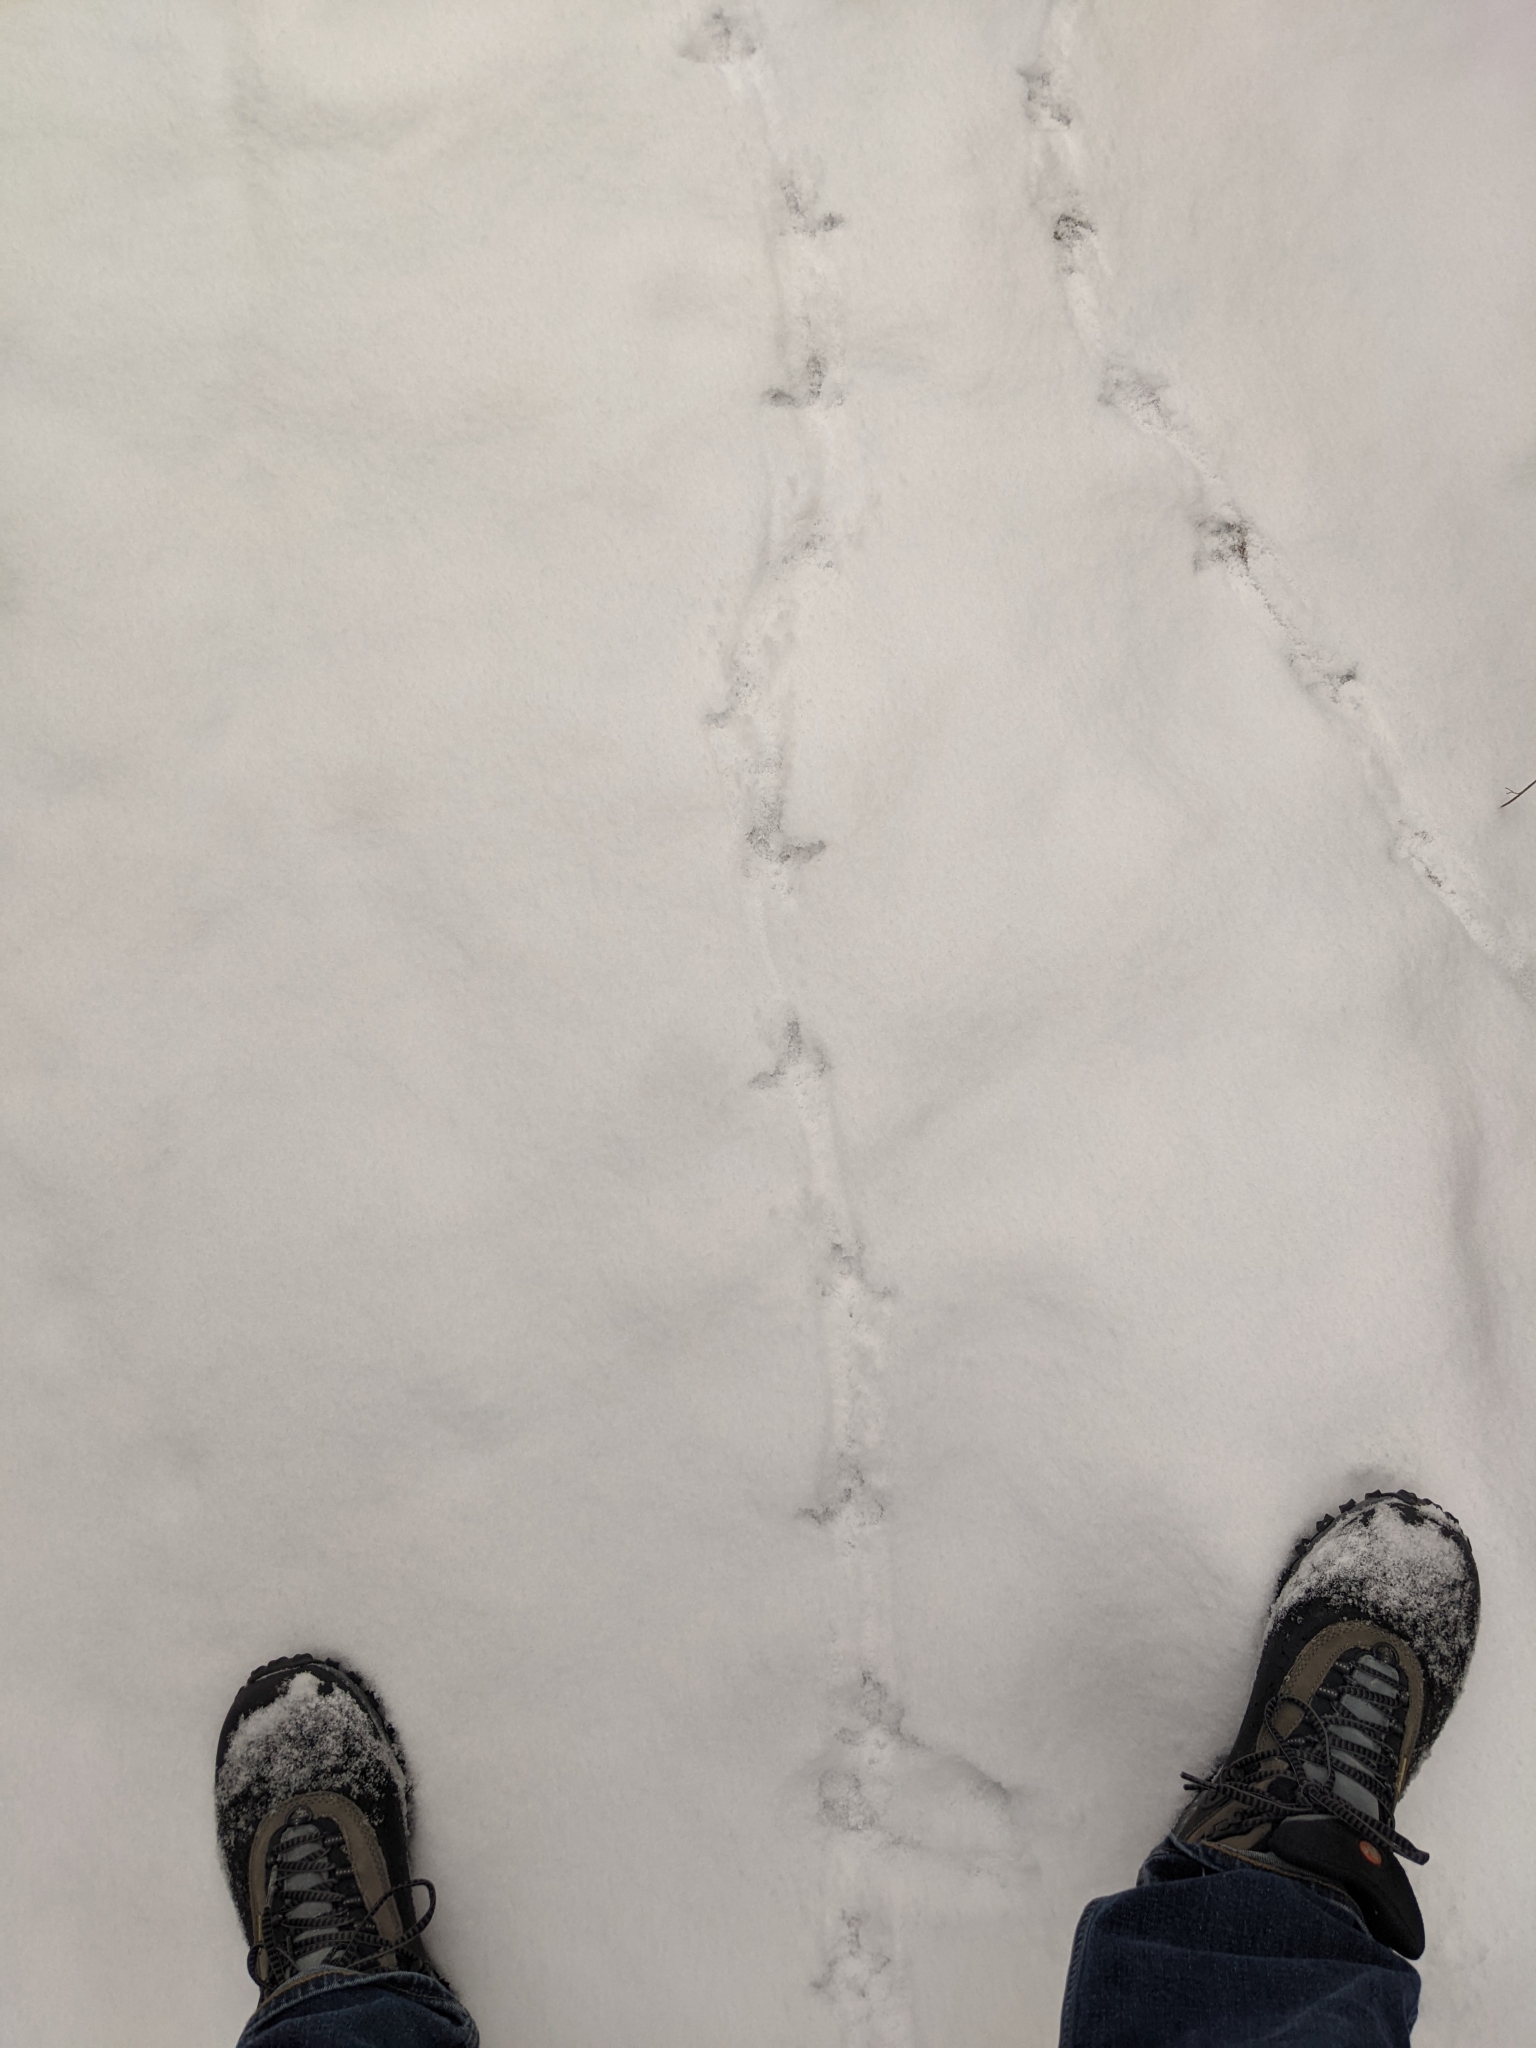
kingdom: Animalia
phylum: Chordata
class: Aves
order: Galliformes
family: Phasianidae
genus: Bonasa
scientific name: Bonasa umbellus
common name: Ruffed grouse
